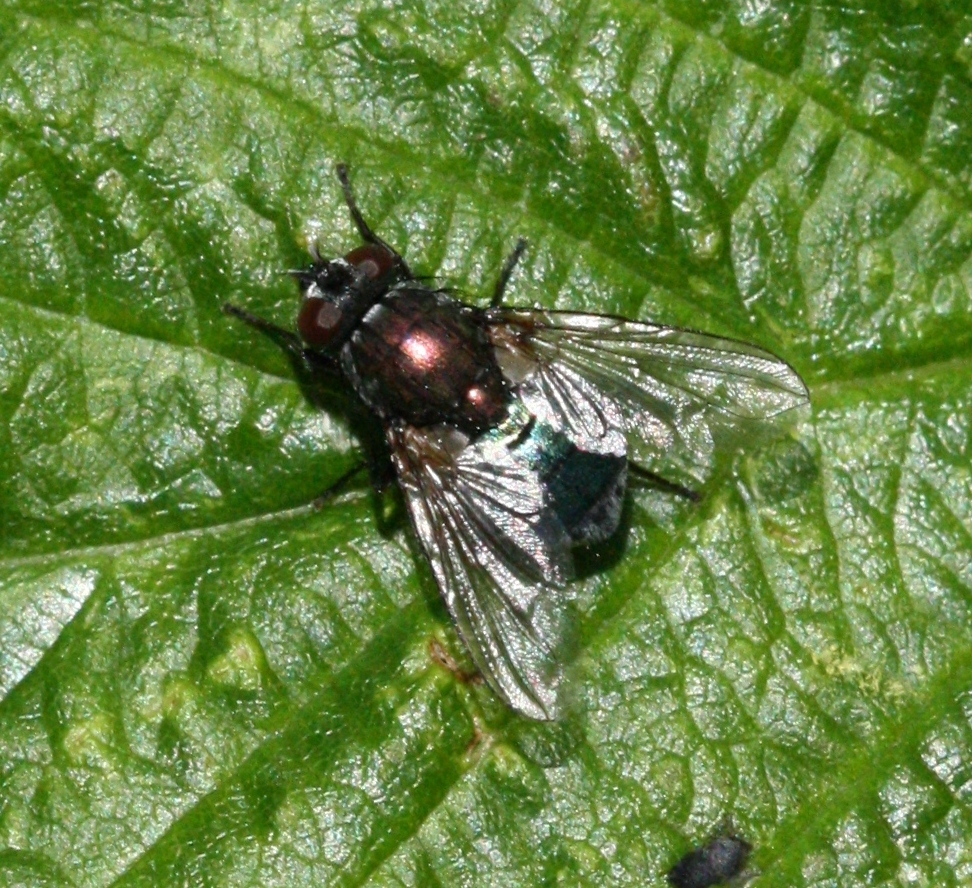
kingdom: Animalia
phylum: Arthropoda
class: Insecta
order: Diptera
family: Muscidae
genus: Dasyphora
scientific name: Dasyphora cyanella
